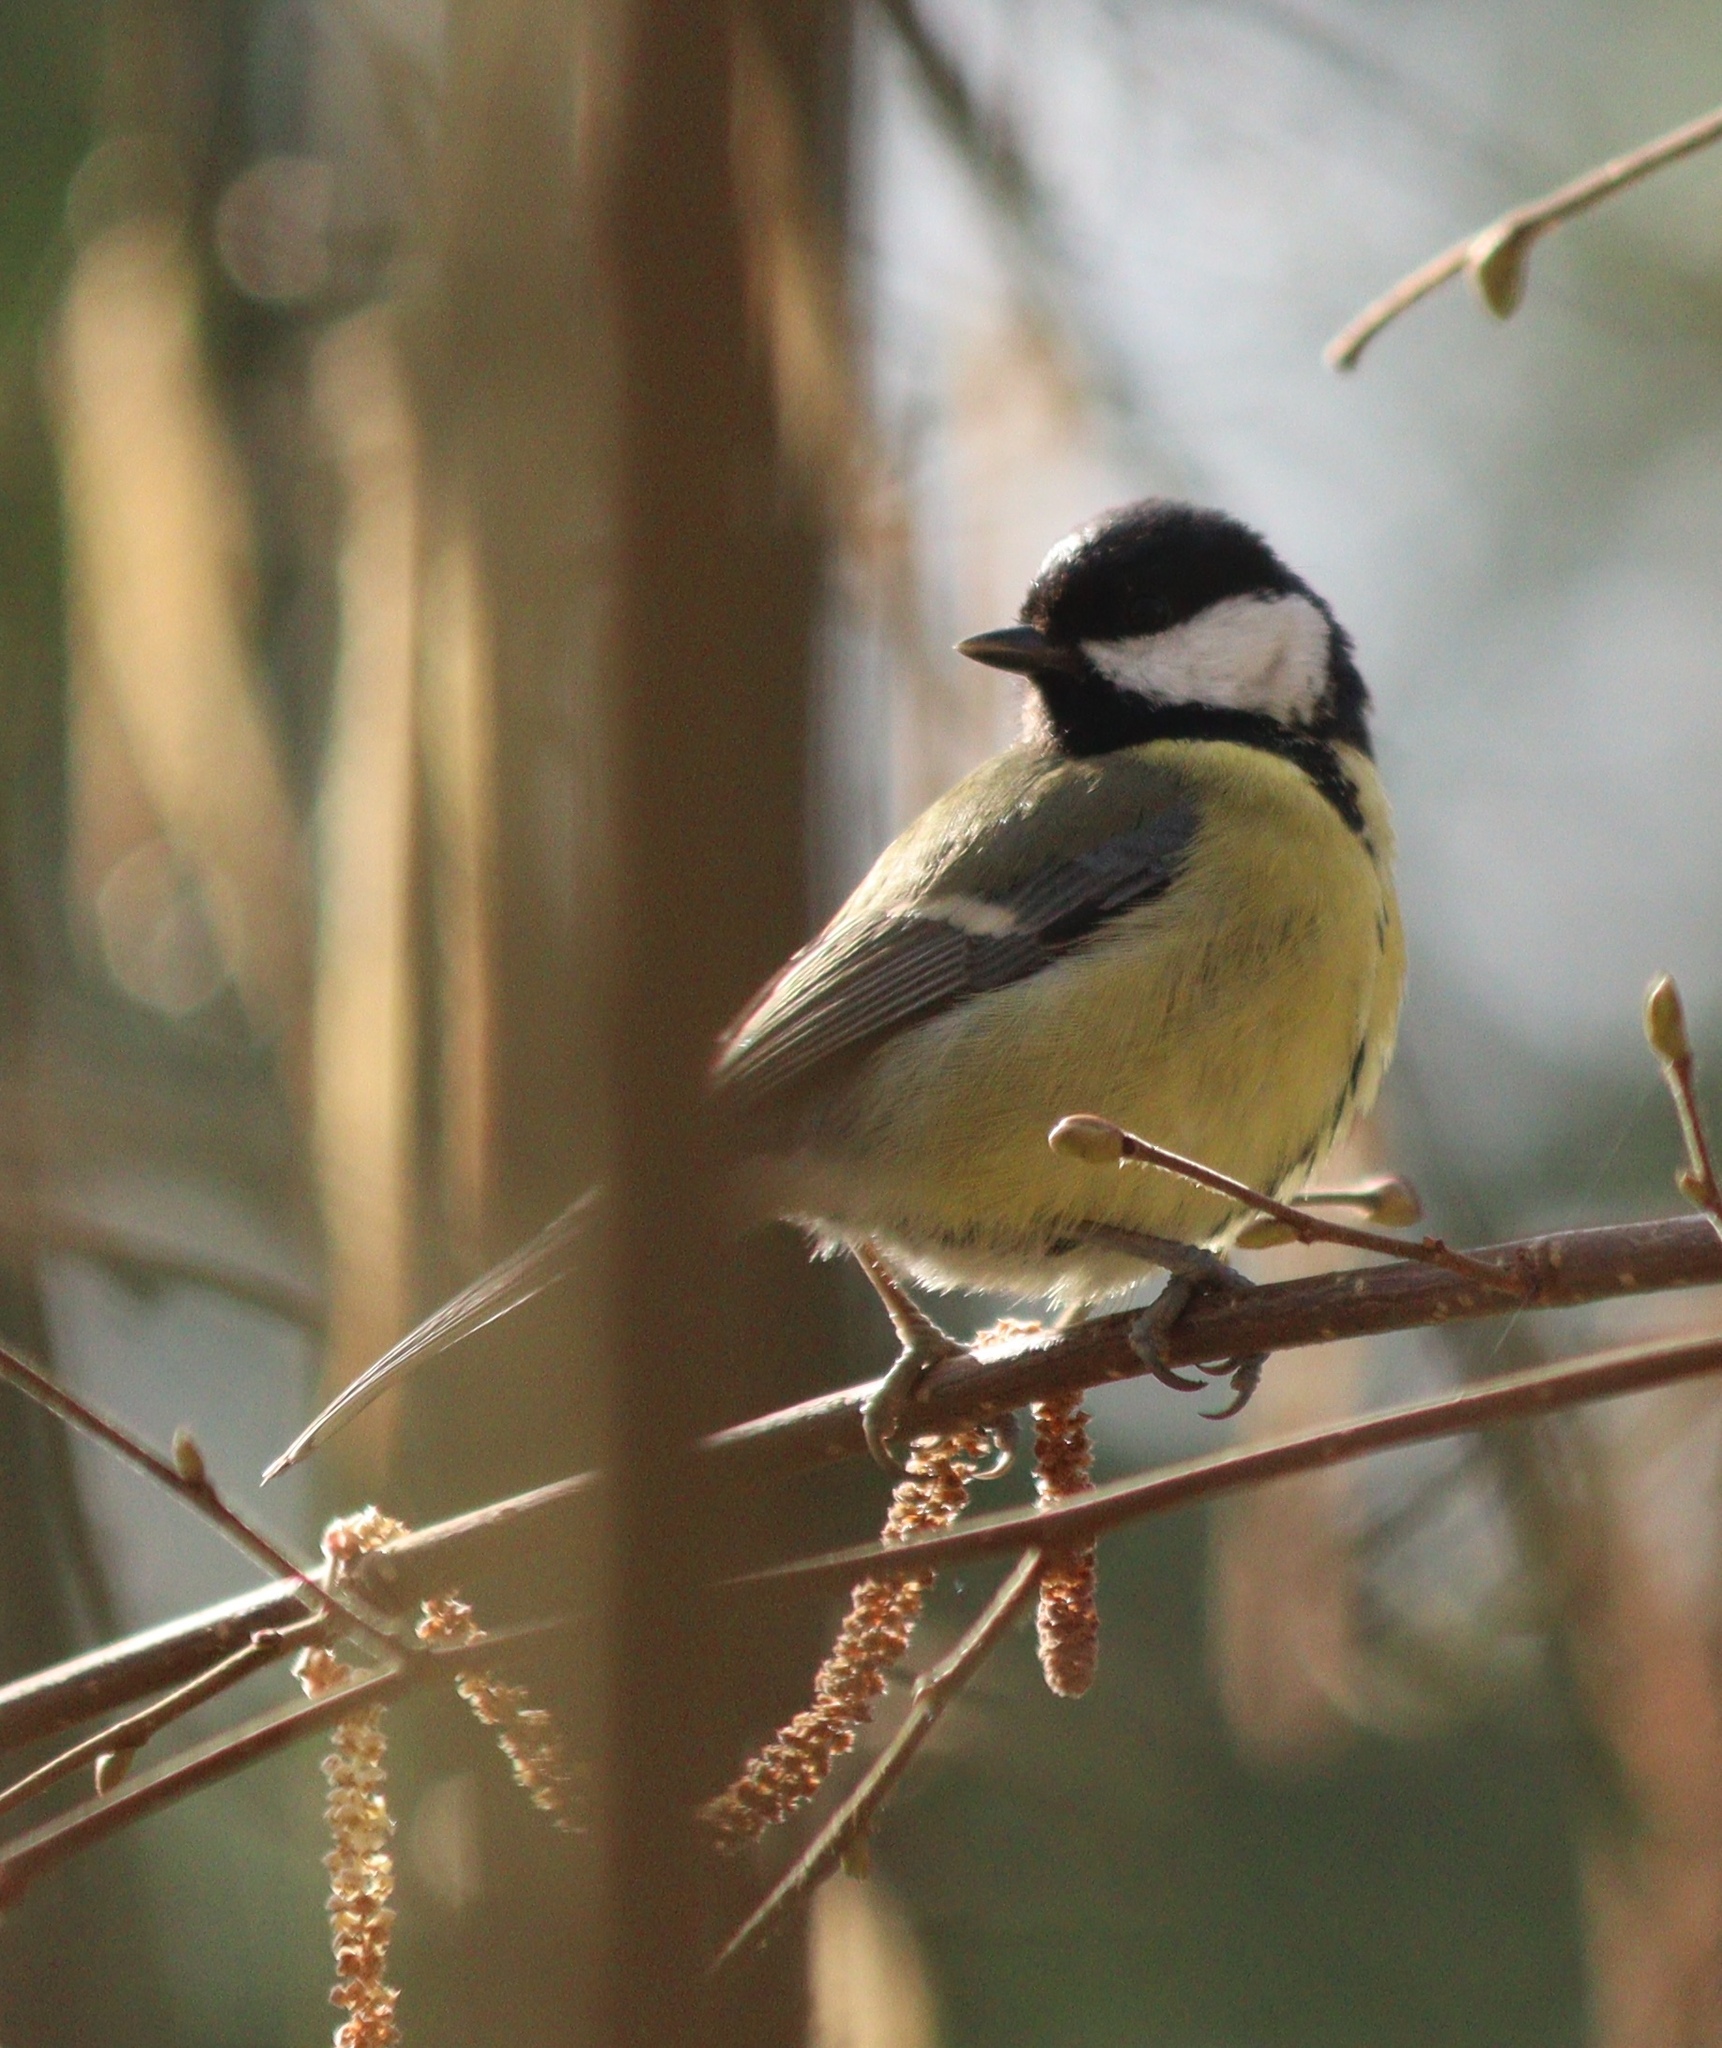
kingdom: Animalia
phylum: Chordata
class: Aves
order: Passeriformes
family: Paridae
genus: Parus
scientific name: Parus major
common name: Great tit
